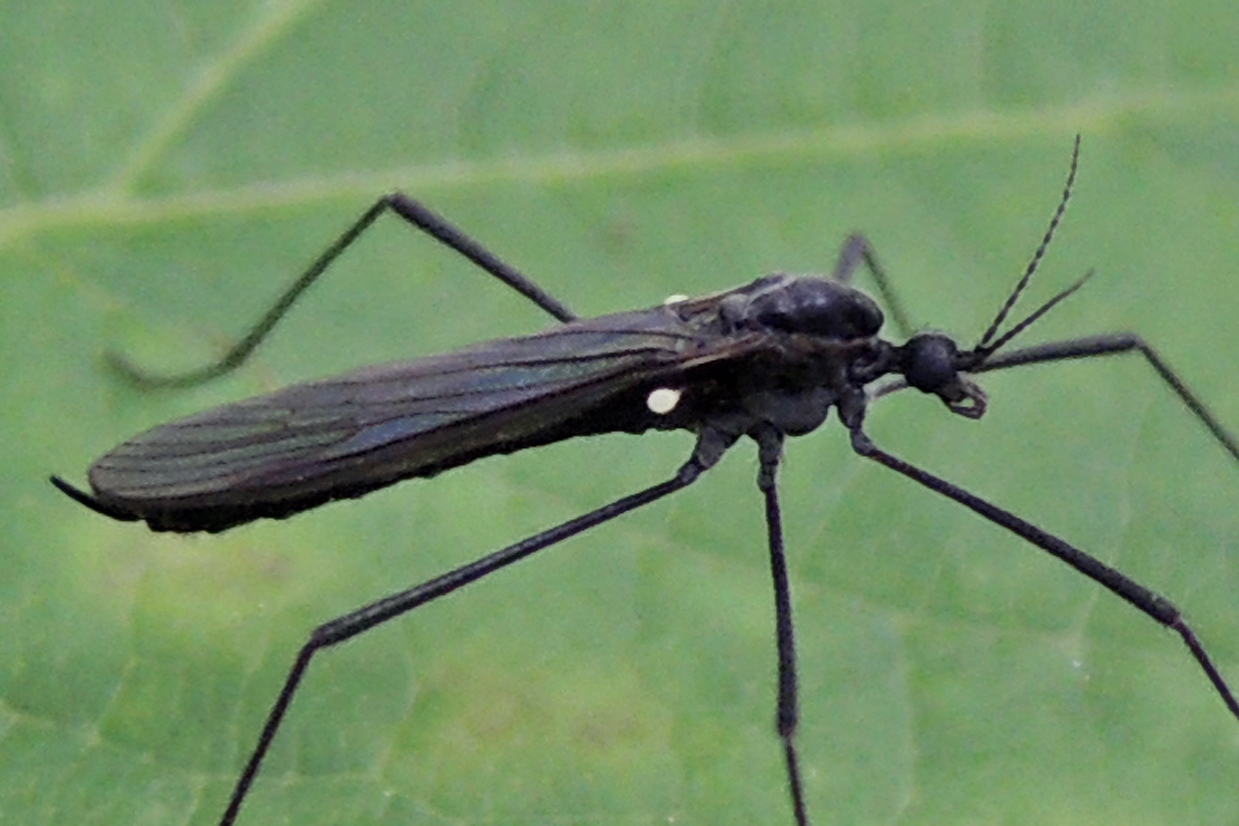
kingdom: Animalia
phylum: Arthropoda
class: Insecta
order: Diptera
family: Limoniidae
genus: Gnophomyia
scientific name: Gnophomyia tristissima
